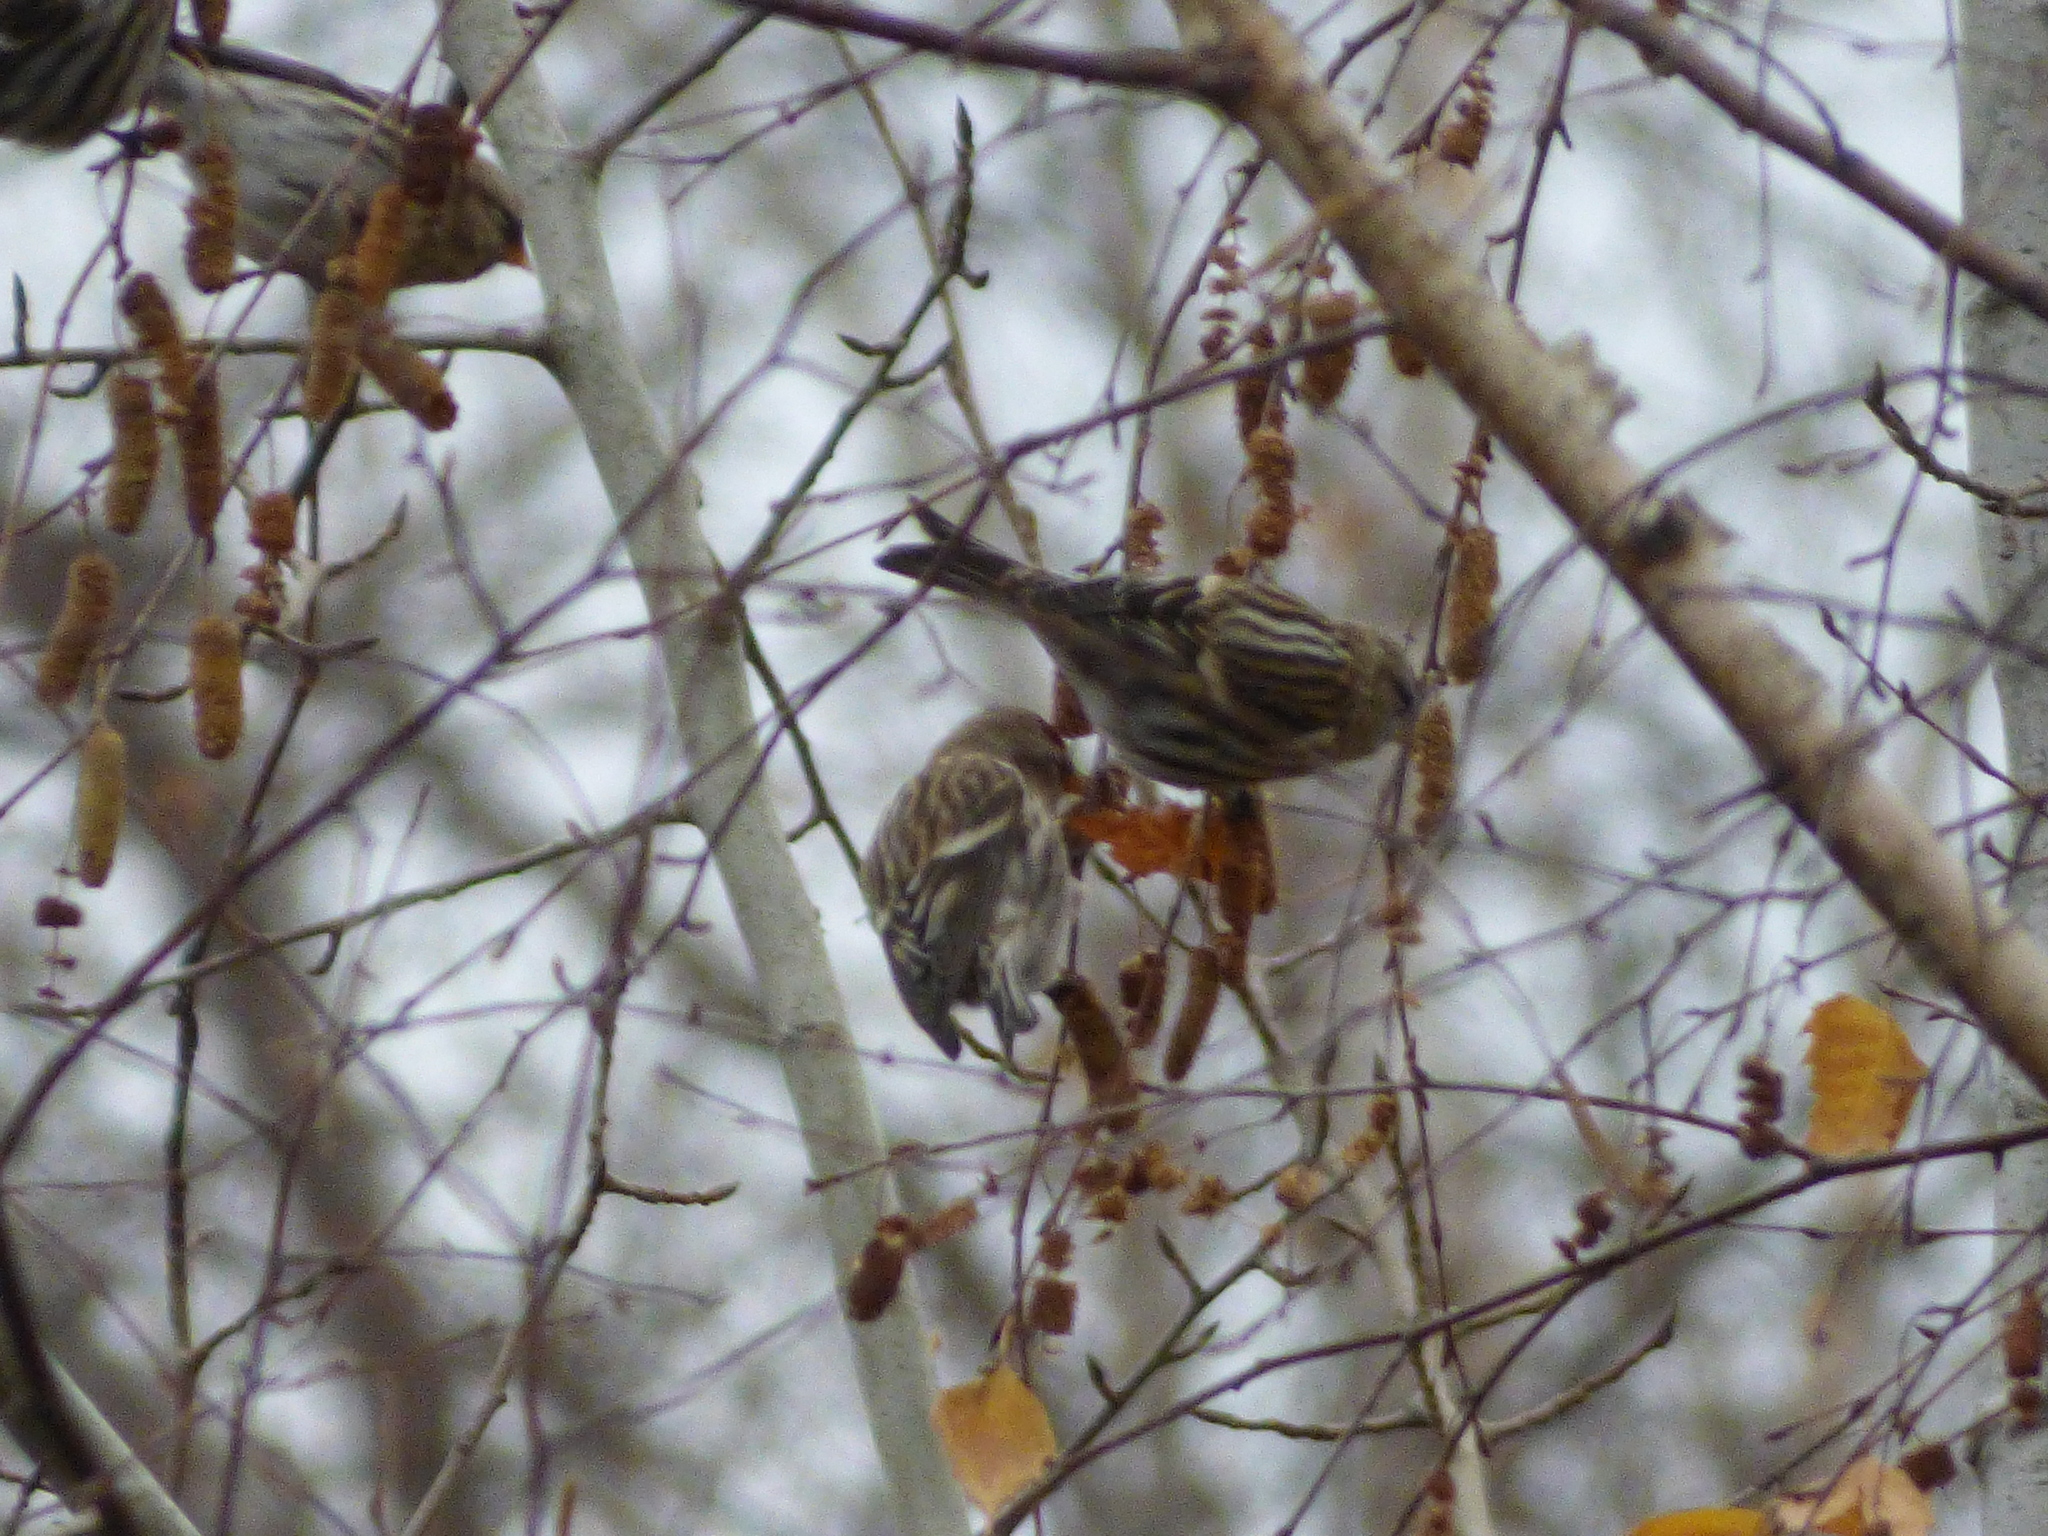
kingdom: Animalia
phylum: Chordata
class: Aves
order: Passeriformes
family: Fringillidae
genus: Acanthis
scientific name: Acanthis flammea
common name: Common redpoll
